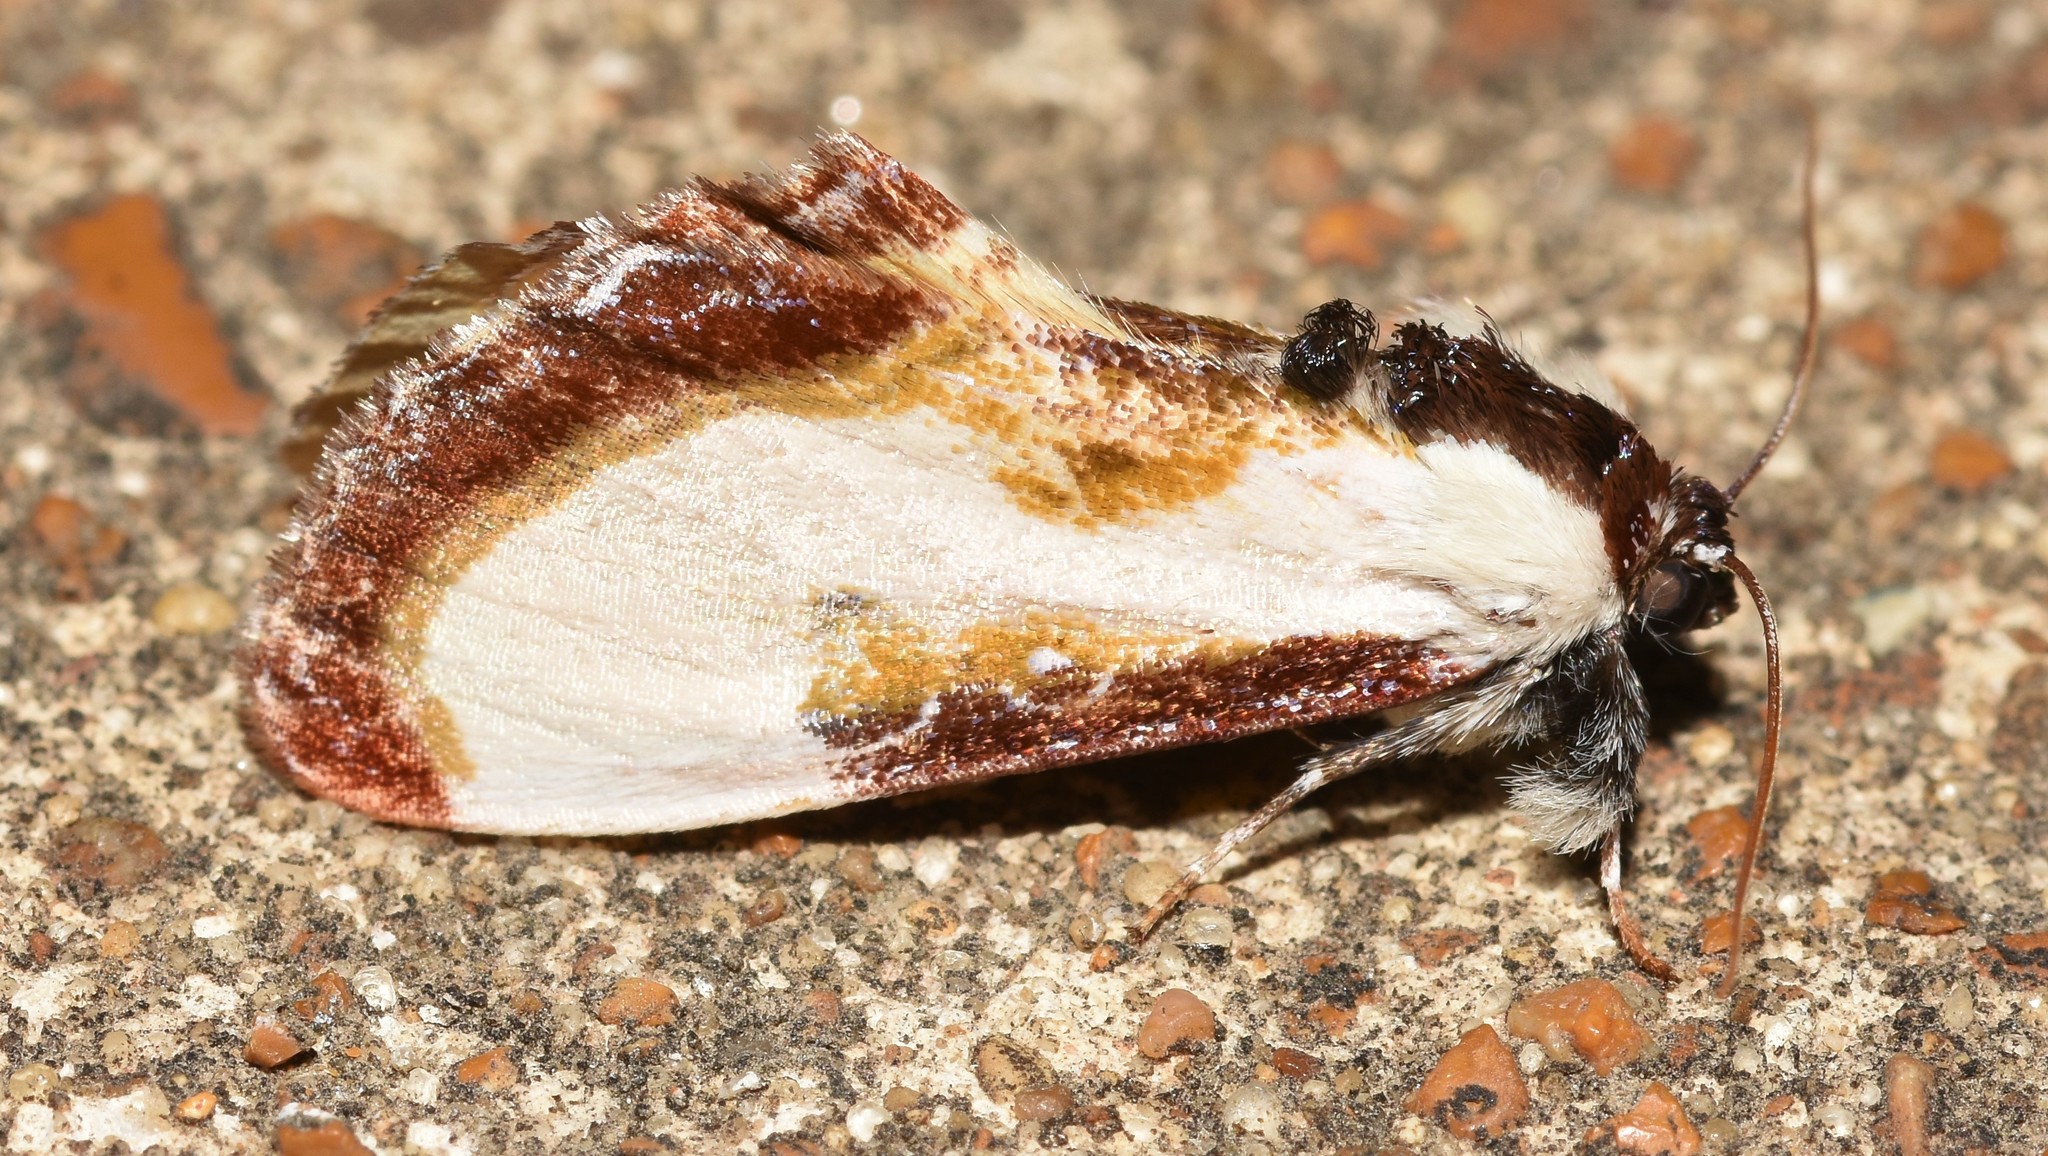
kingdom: Animalia
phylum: Arthropoda
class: Insecta
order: Lepidoptera
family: Noctuidae
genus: Eudryas
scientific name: Eudryas grata
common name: Beautiful wood-nymph
